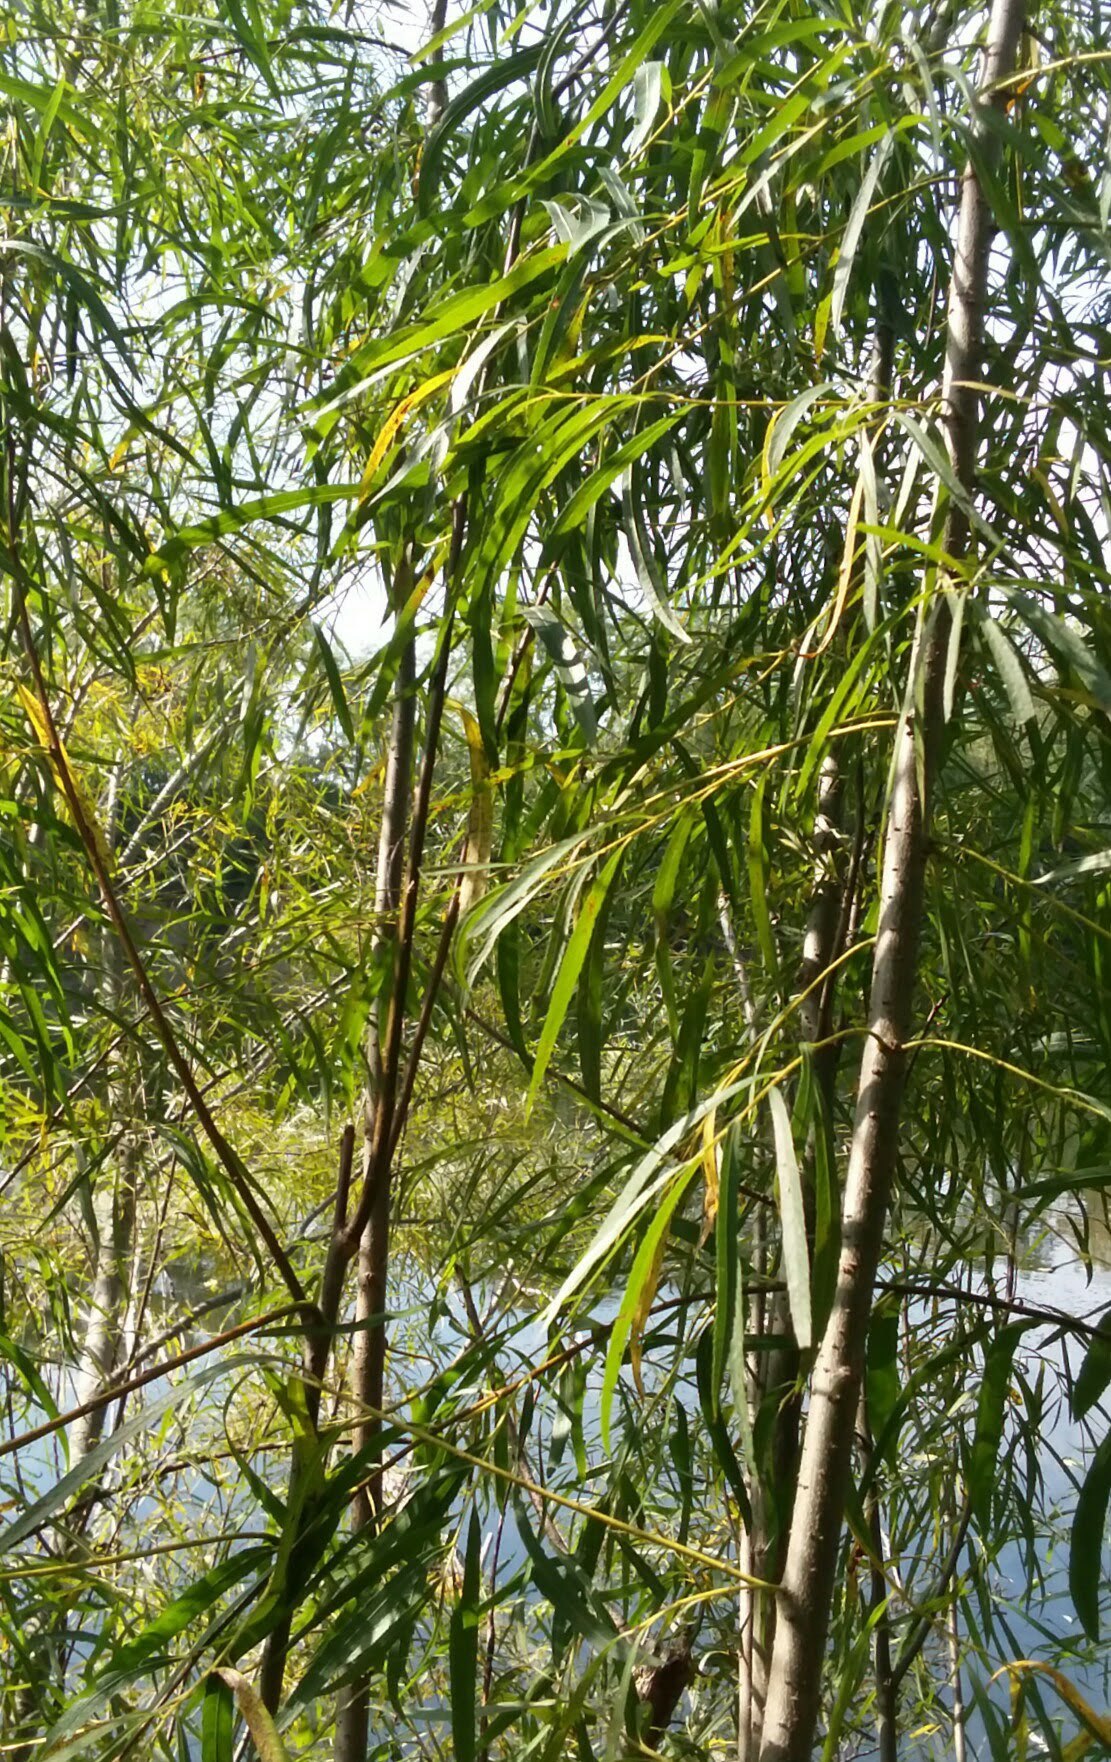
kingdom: Plantae
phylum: Tracheophyta
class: Magnoliopsida
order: Malpighiales
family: Salicaceae
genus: Salix
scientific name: Salix interior
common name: Sandbar willow
